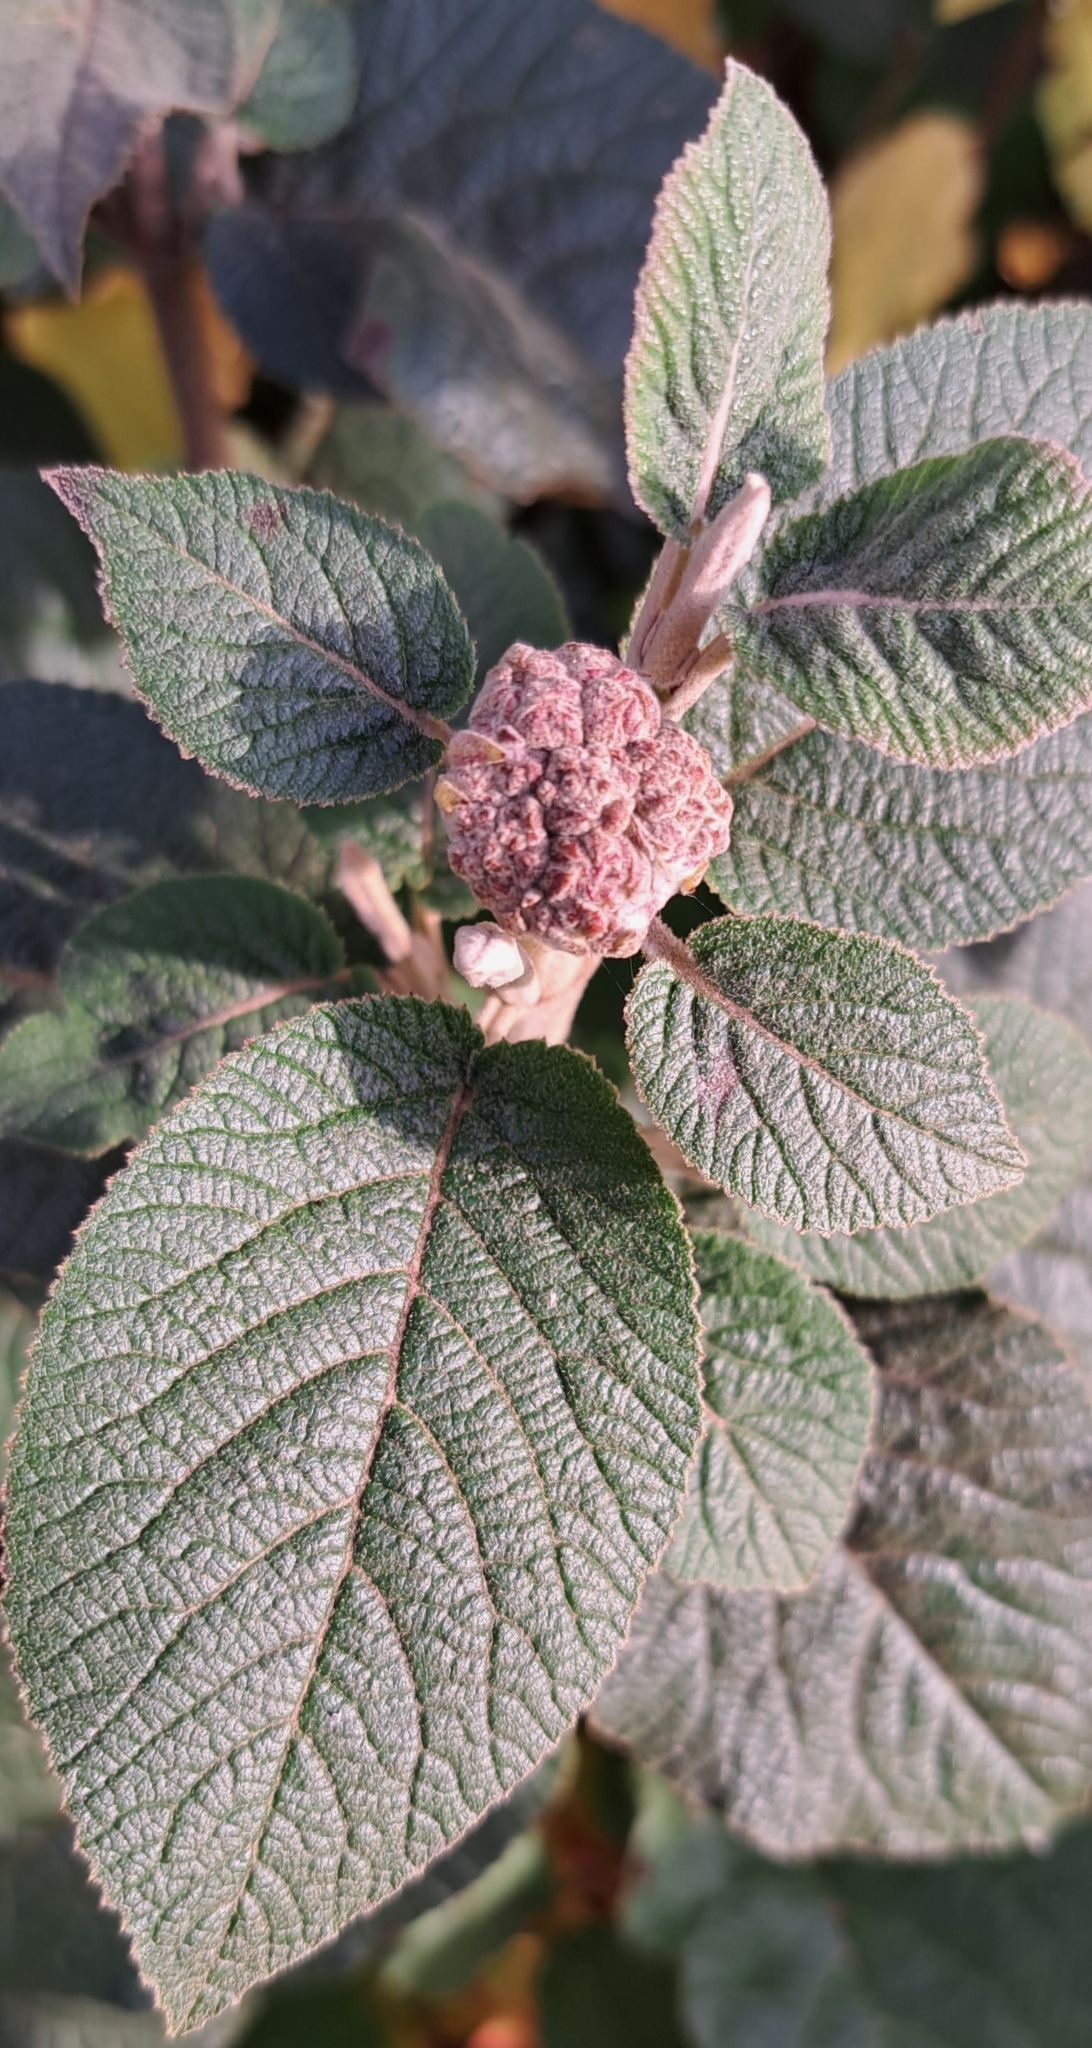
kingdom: Plantae
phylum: Tracheophyta
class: Magnoliopsida
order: Dipsacales
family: Viburnaceae
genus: Viburnum
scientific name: Viburnum lantana
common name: Wayfaring tree
